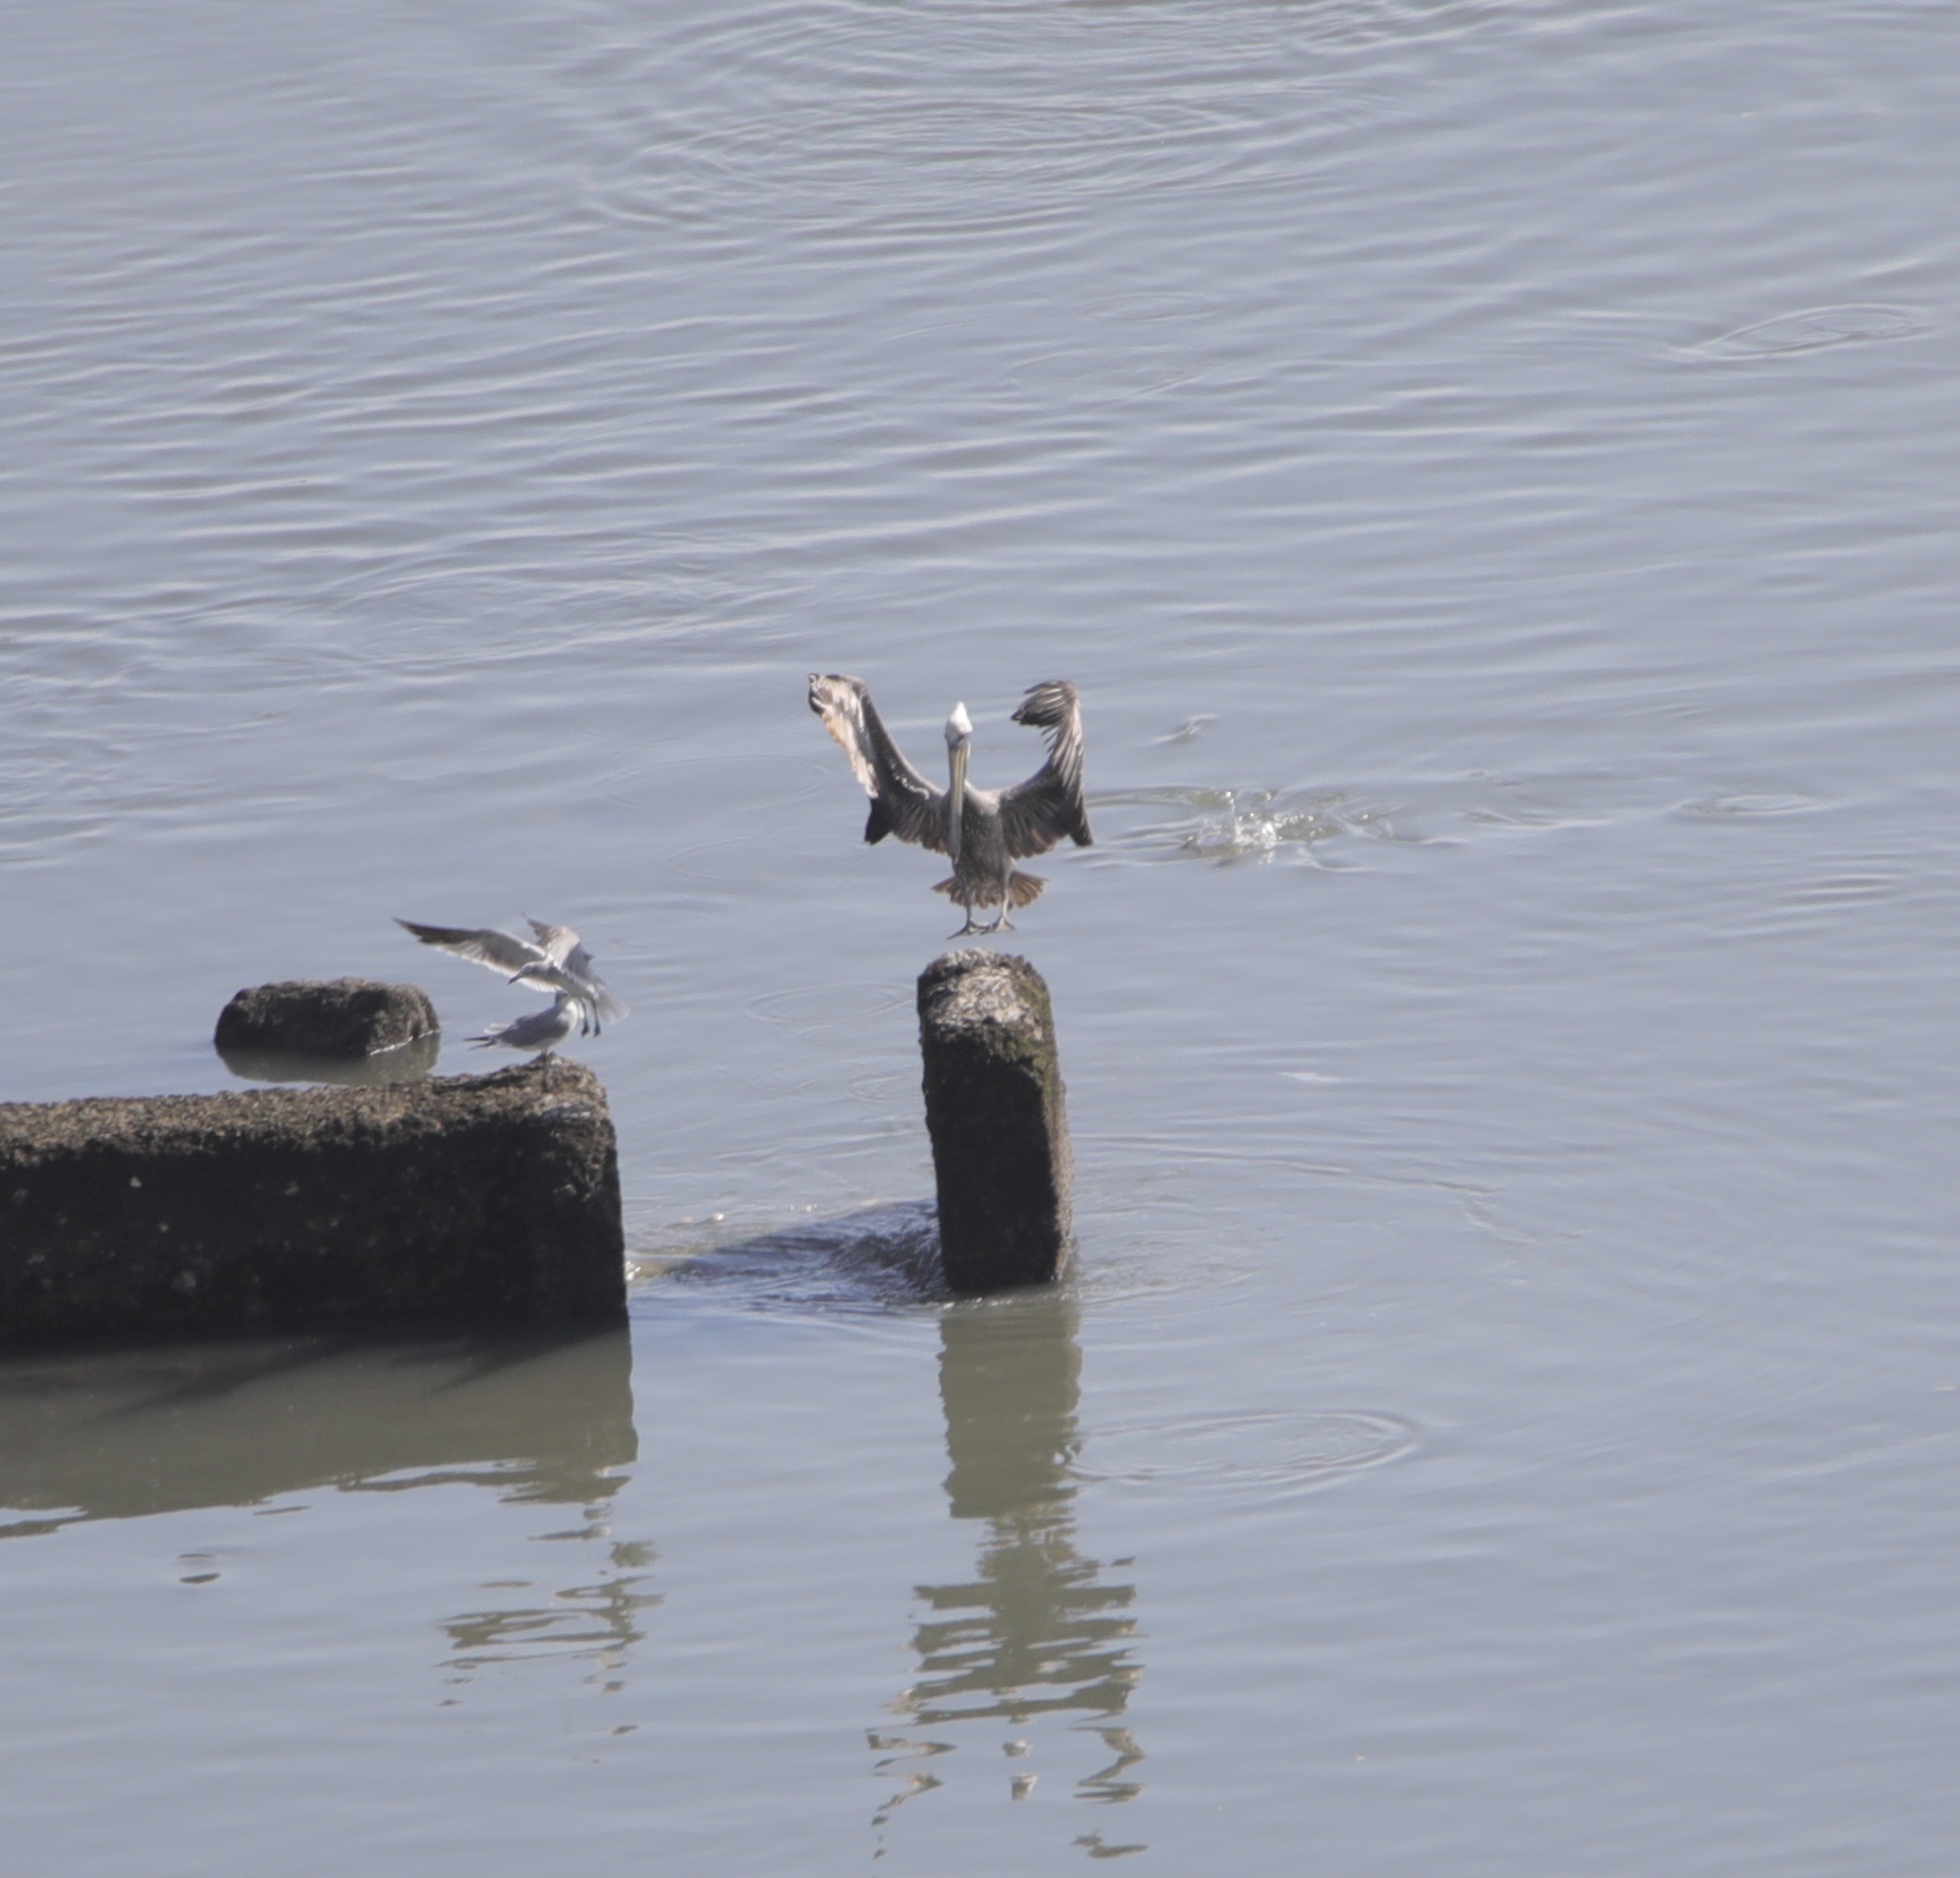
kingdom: Animalia
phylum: Chordata
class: Aves
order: Pelecaniformes
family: Pelecanidae
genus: Pelecanus
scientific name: Pelecanus occidentalis
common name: Brown pelican
